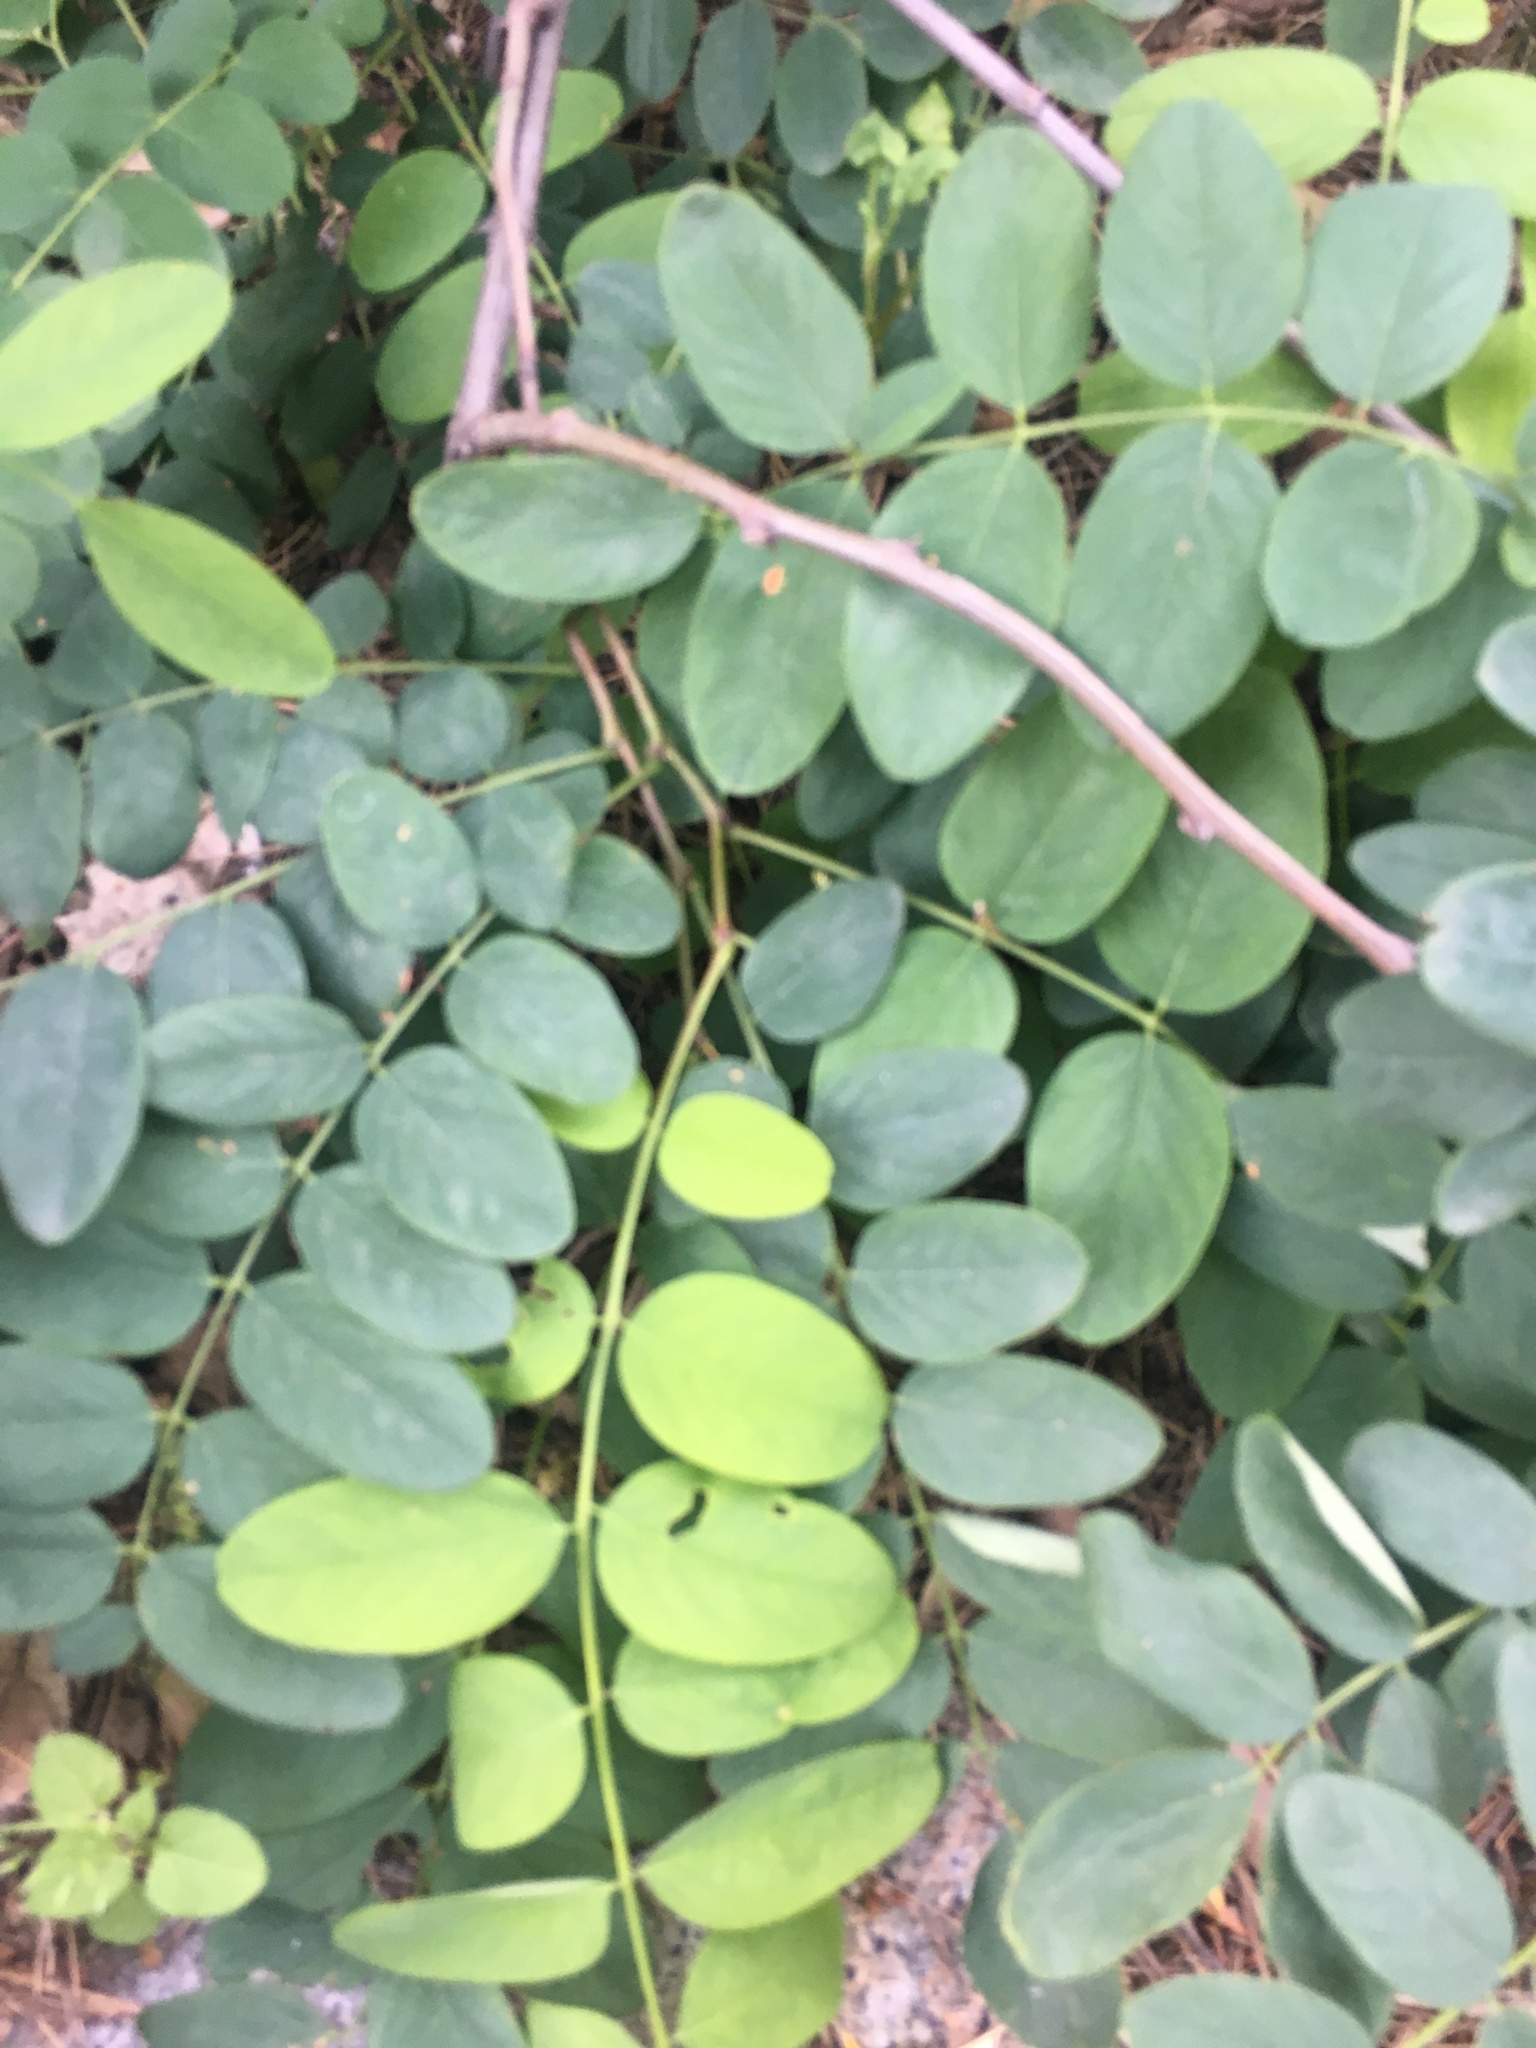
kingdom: Plantae
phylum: Tracheophyta
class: Magnoliopsida
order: Fabales
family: Fabaceae
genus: Robinia
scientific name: Robinia pseudoacacia
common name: Black locust
